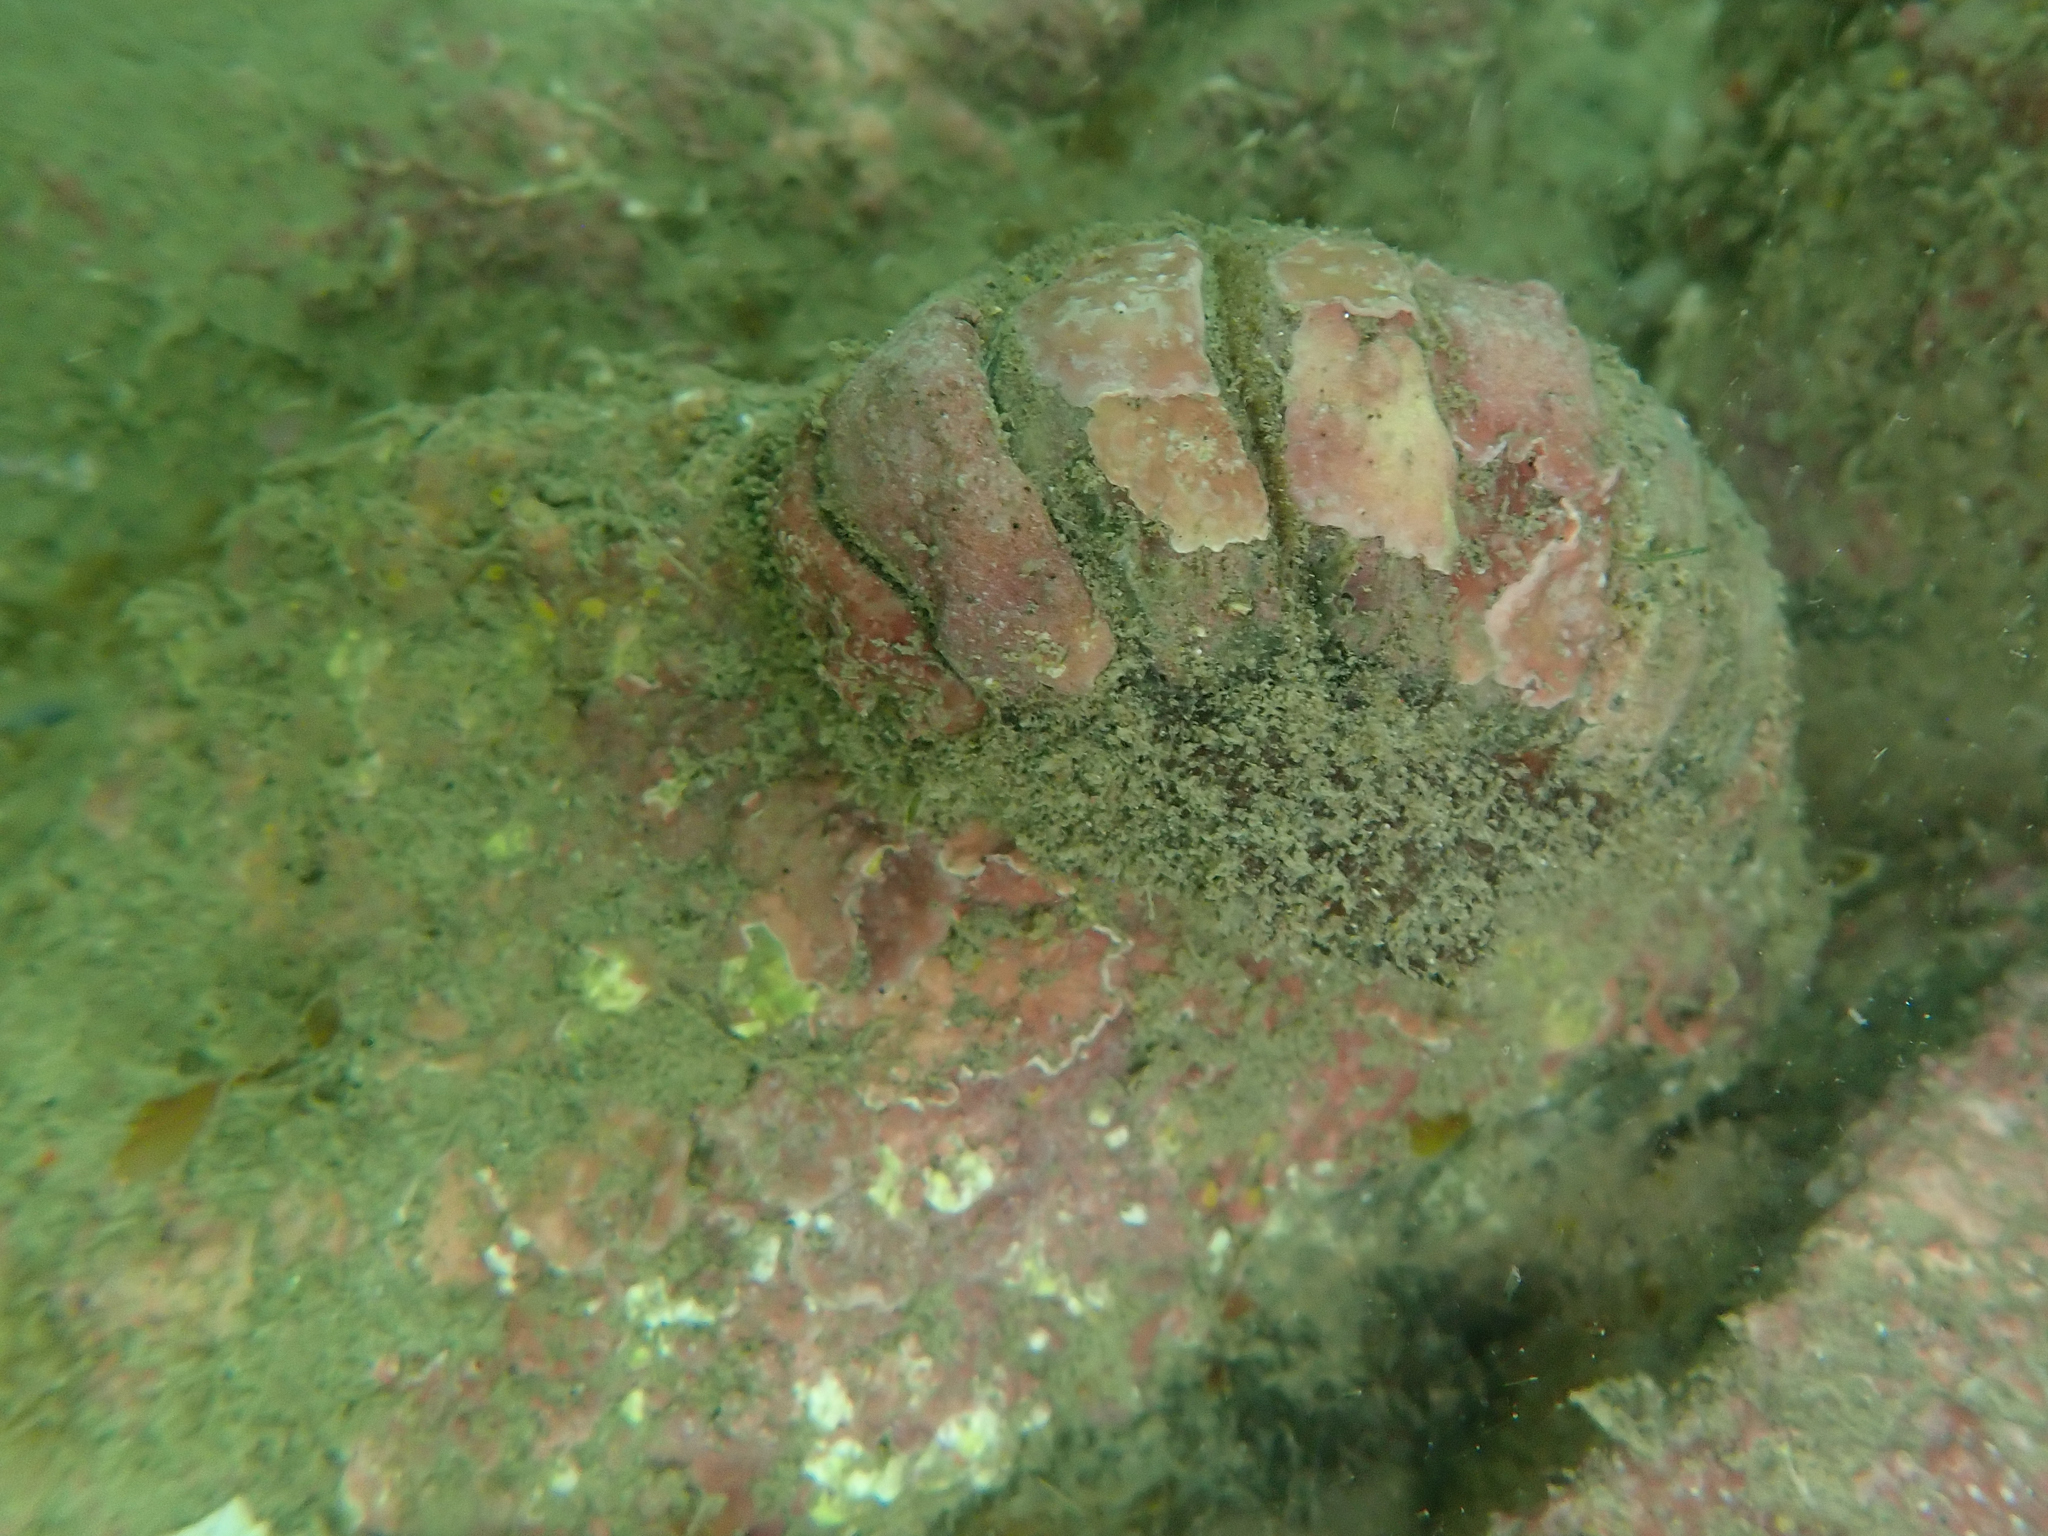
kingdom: Animalia
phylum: Mollusca
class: Polyplacophora
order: Callochitonida
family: Callochitonidae
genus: Eudoxochiton
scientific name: Eudoxochiton nobilis
